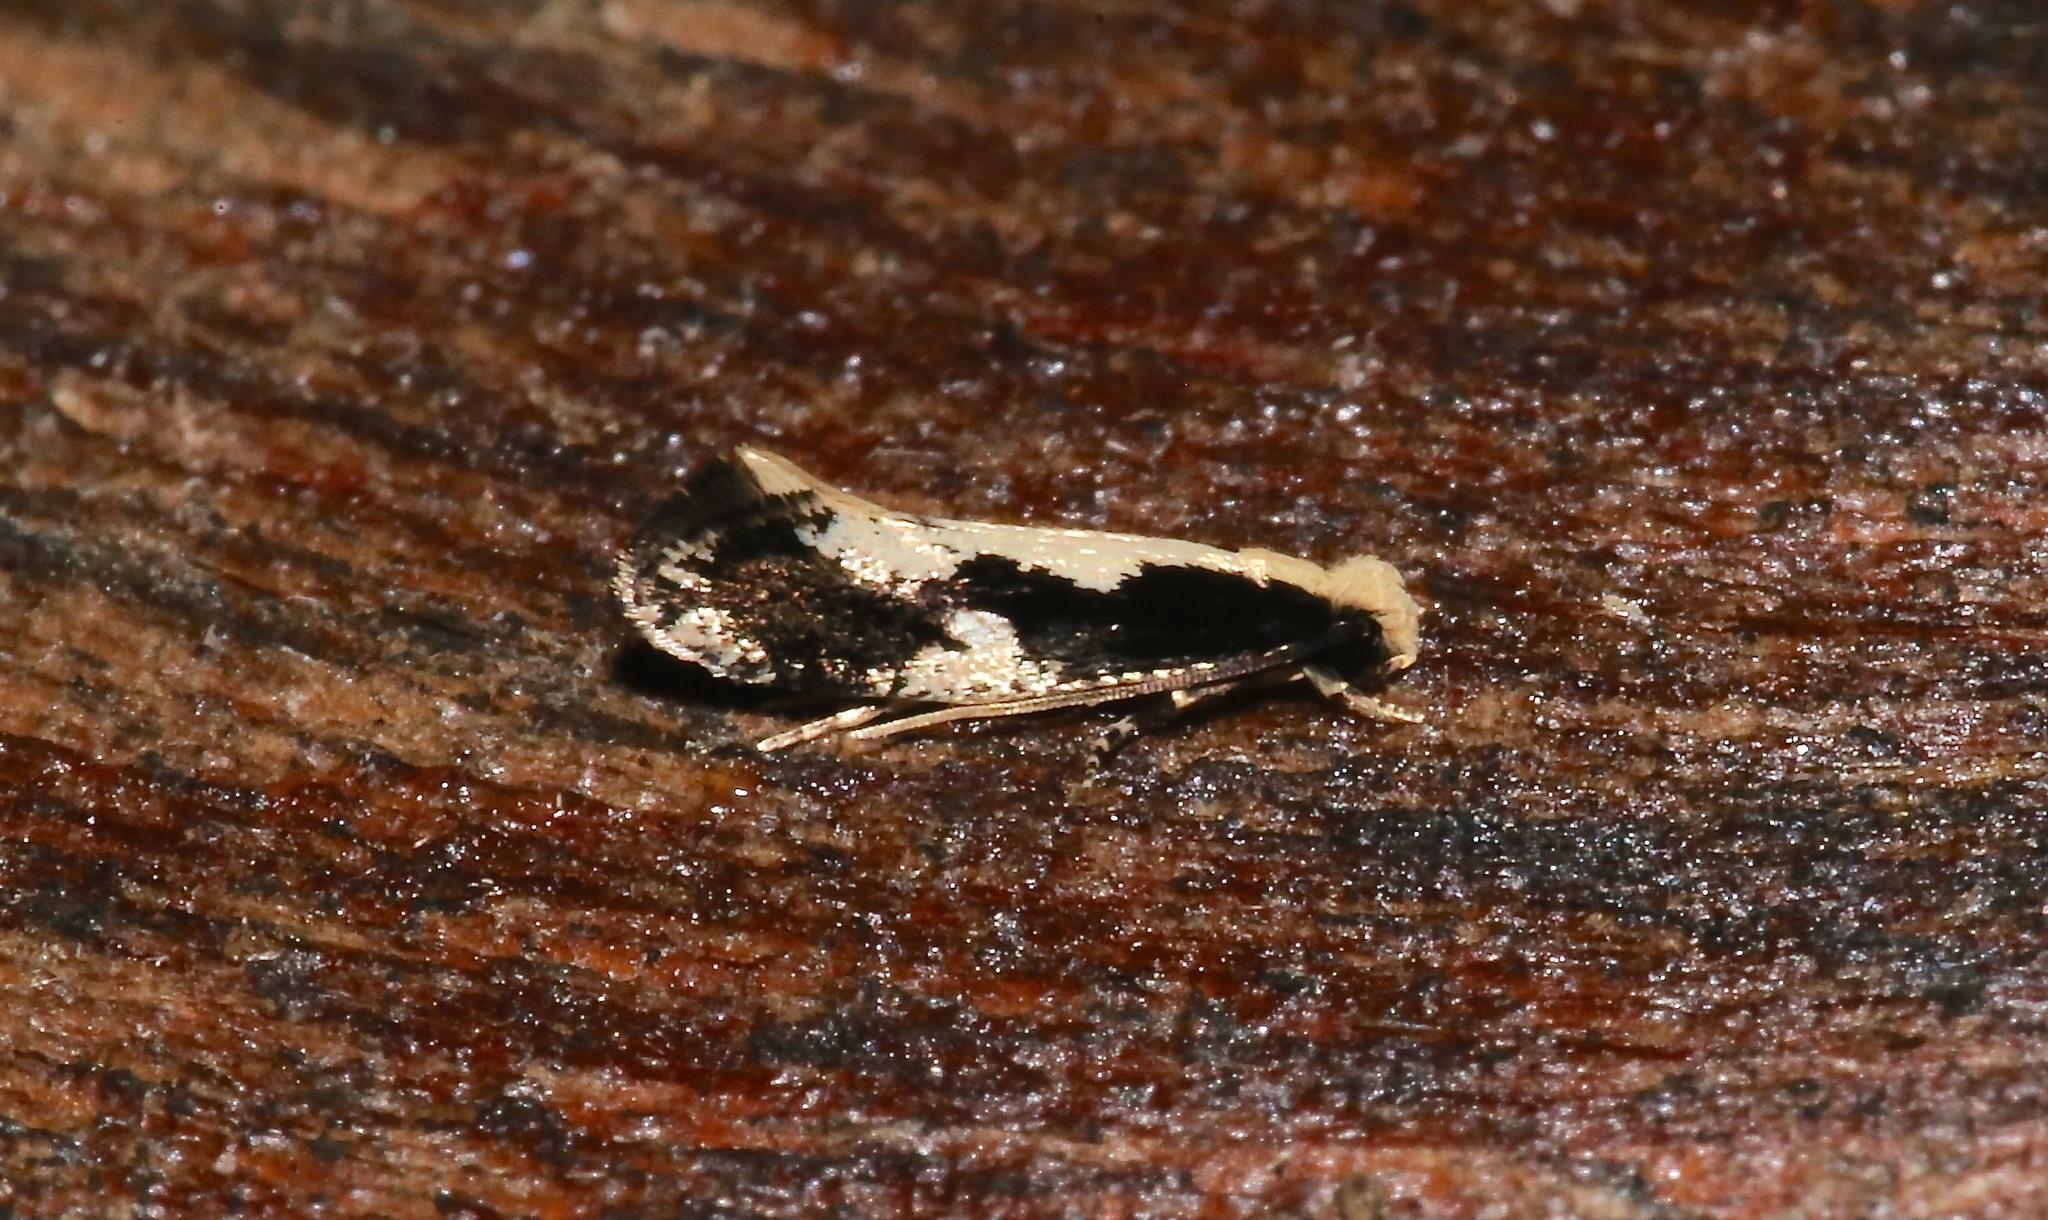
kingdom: Animalia
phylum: Arthropoda
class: Insecta
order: Lepidoptera
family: Tineidae
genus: Monopis
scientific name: Monopis dorsistrigella
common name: Skunkback monopis moth
